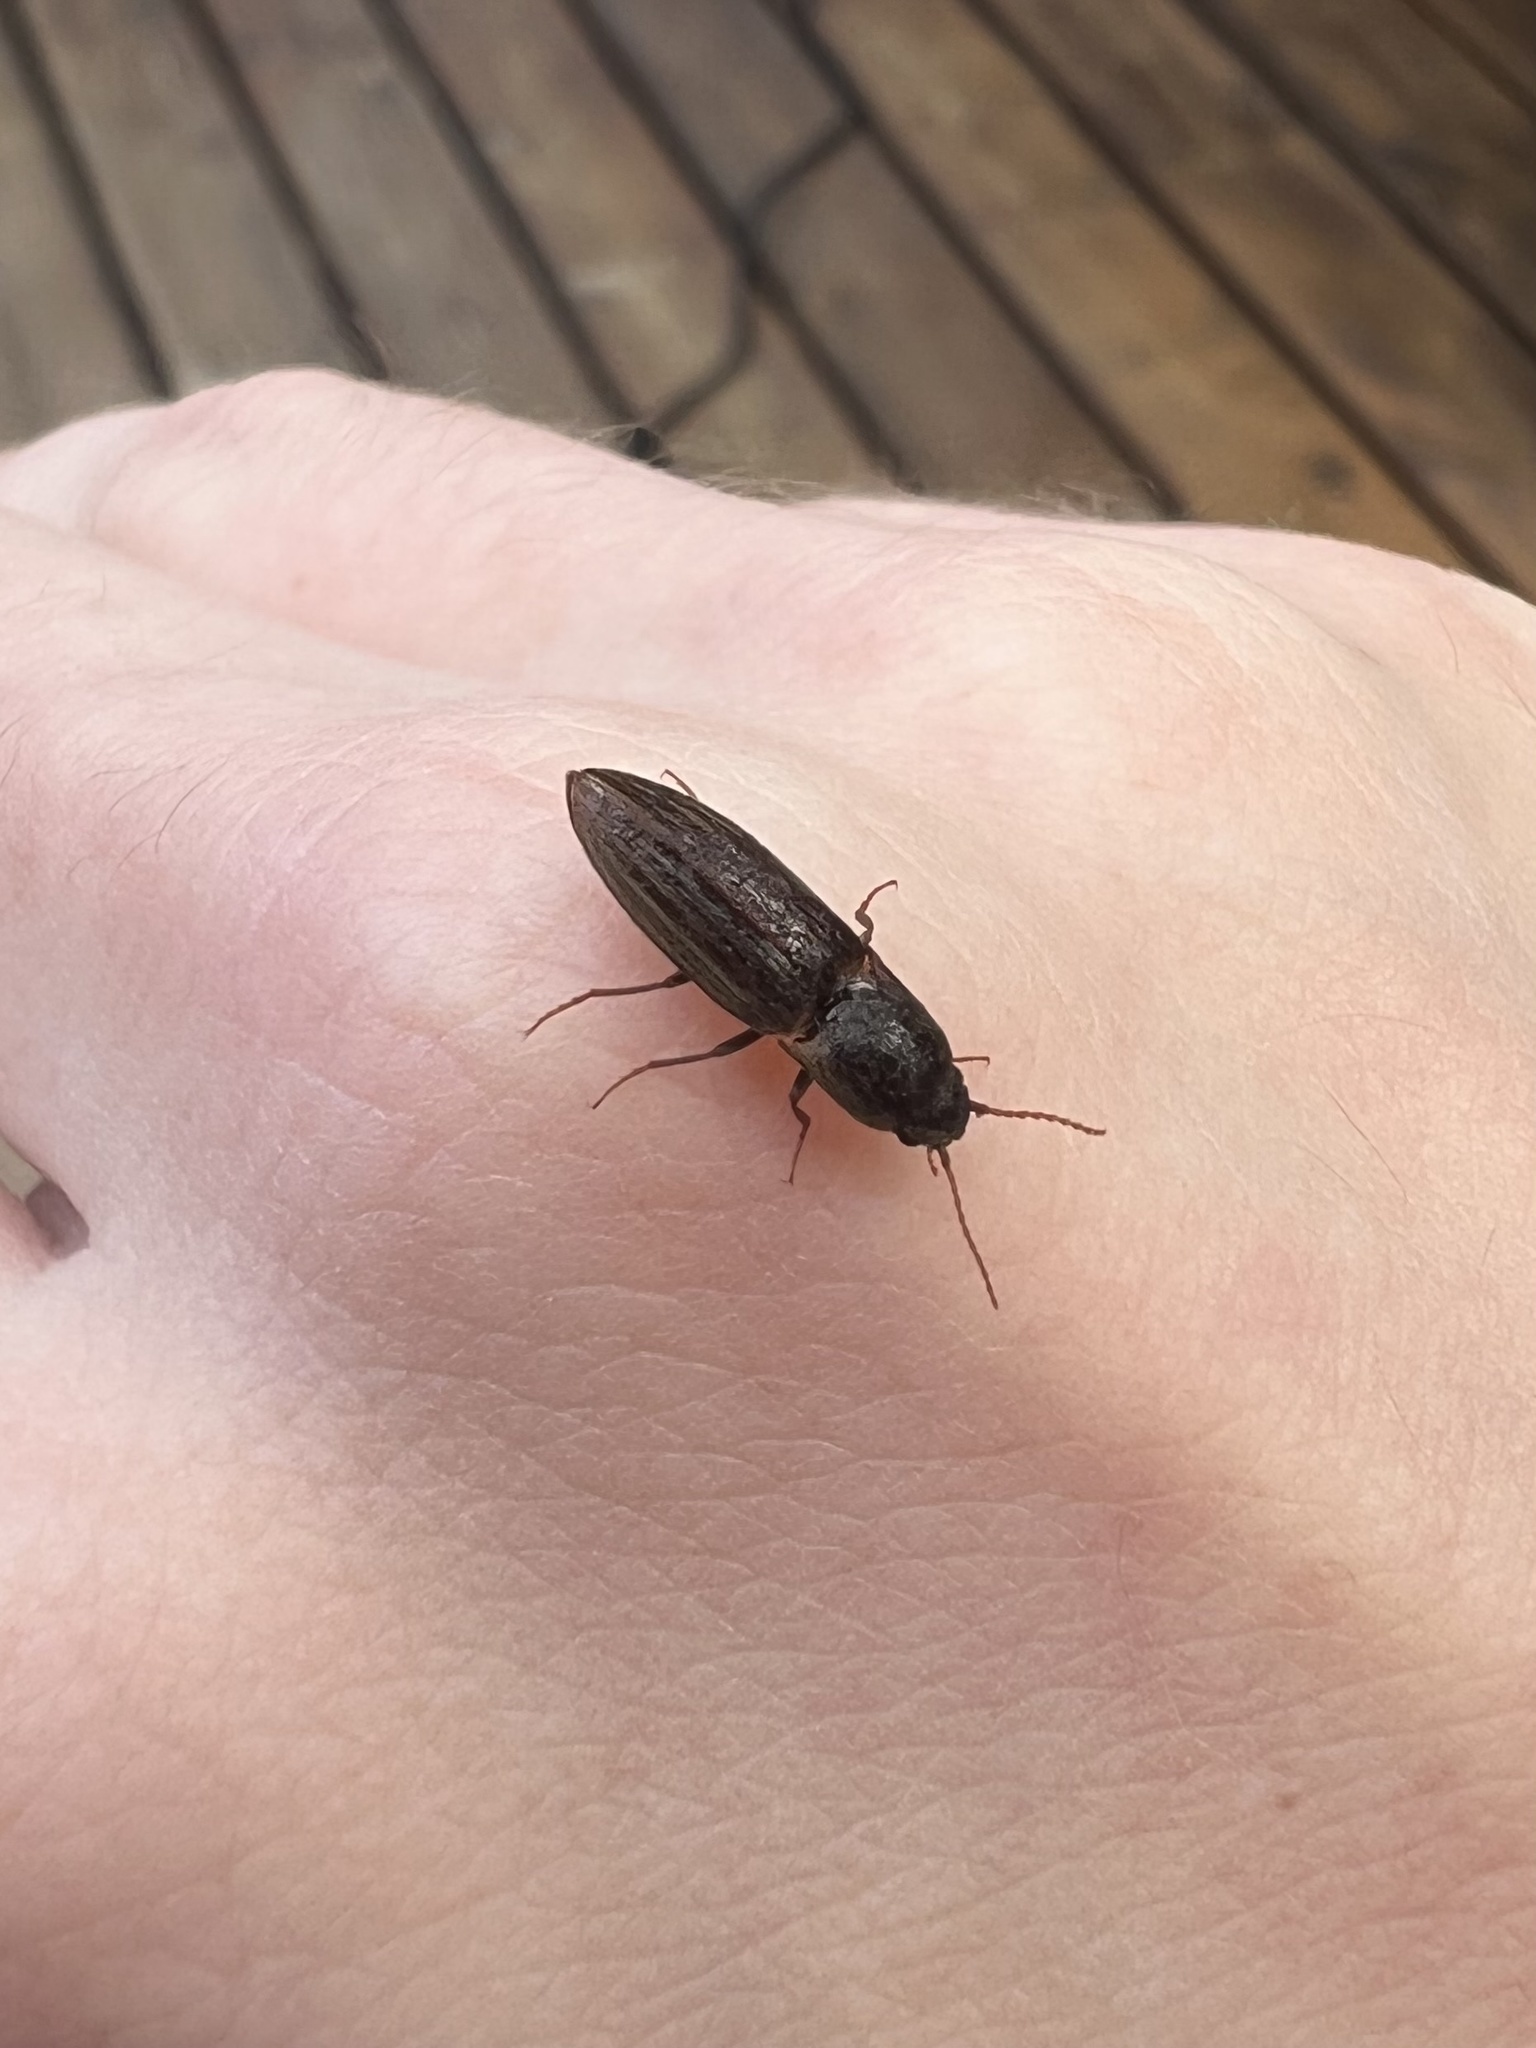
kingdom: Animalia
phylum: Arthropoda
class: Insecta
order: Coleoptera
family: Elateridae
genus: Agriotes
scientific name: Agriotes lineatus
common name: Lined click beetle
